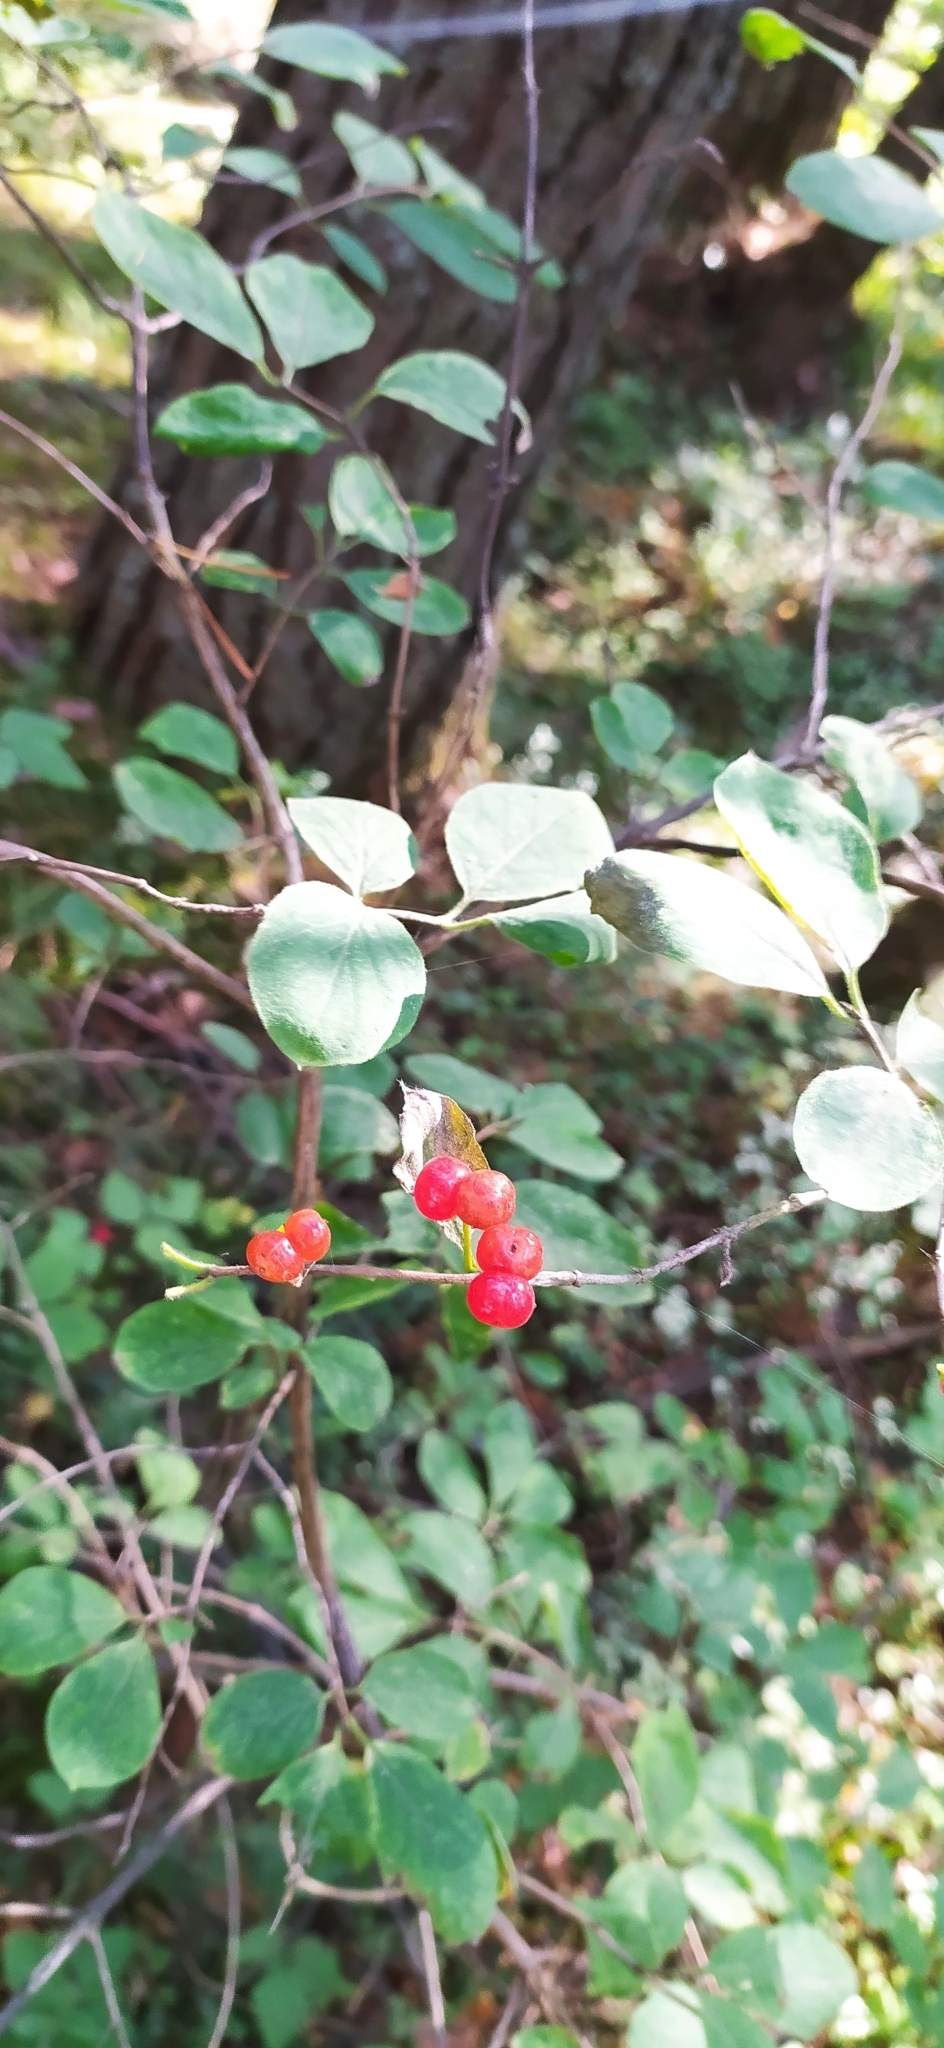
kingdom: Plantae
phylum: Tracheophyta
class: Magnoliopsida
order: Dipsacales
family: Caprifoliaceae
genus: Lonicera
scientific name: Lonicera xylosteum
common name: Fly honeysuckle
